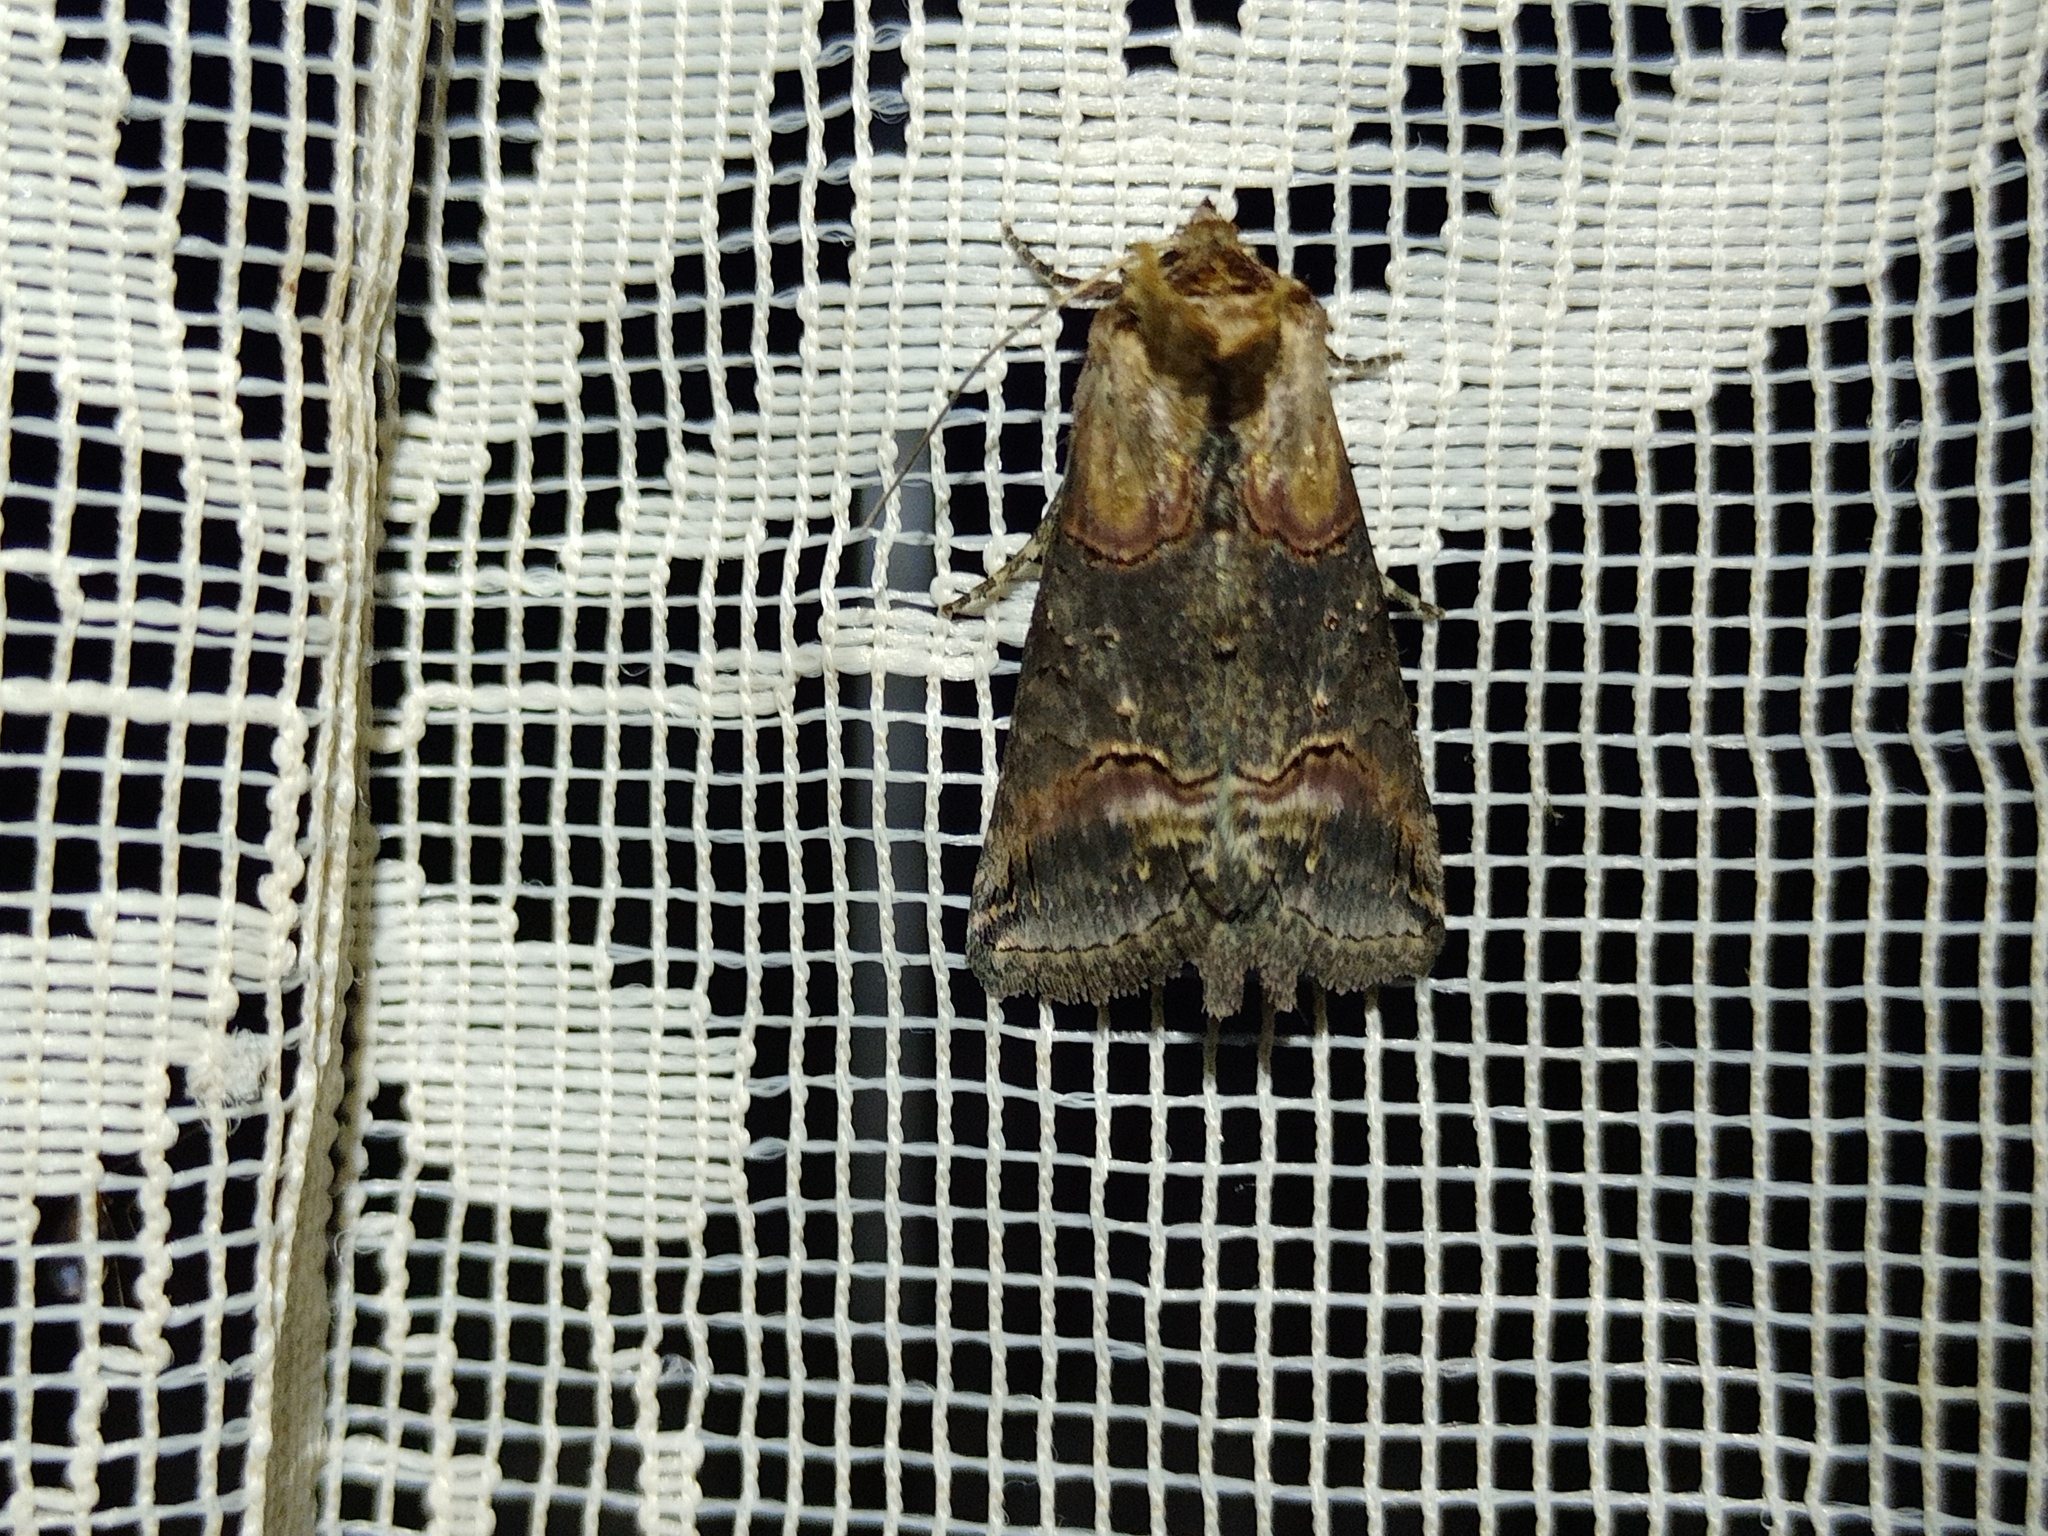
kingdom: Animalia
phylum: Arthropoda
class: Insecta
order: Lepidoptera
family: Noctuidae
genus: Abrostola
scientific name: Abrostola triplasia
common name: Dark spectacle
